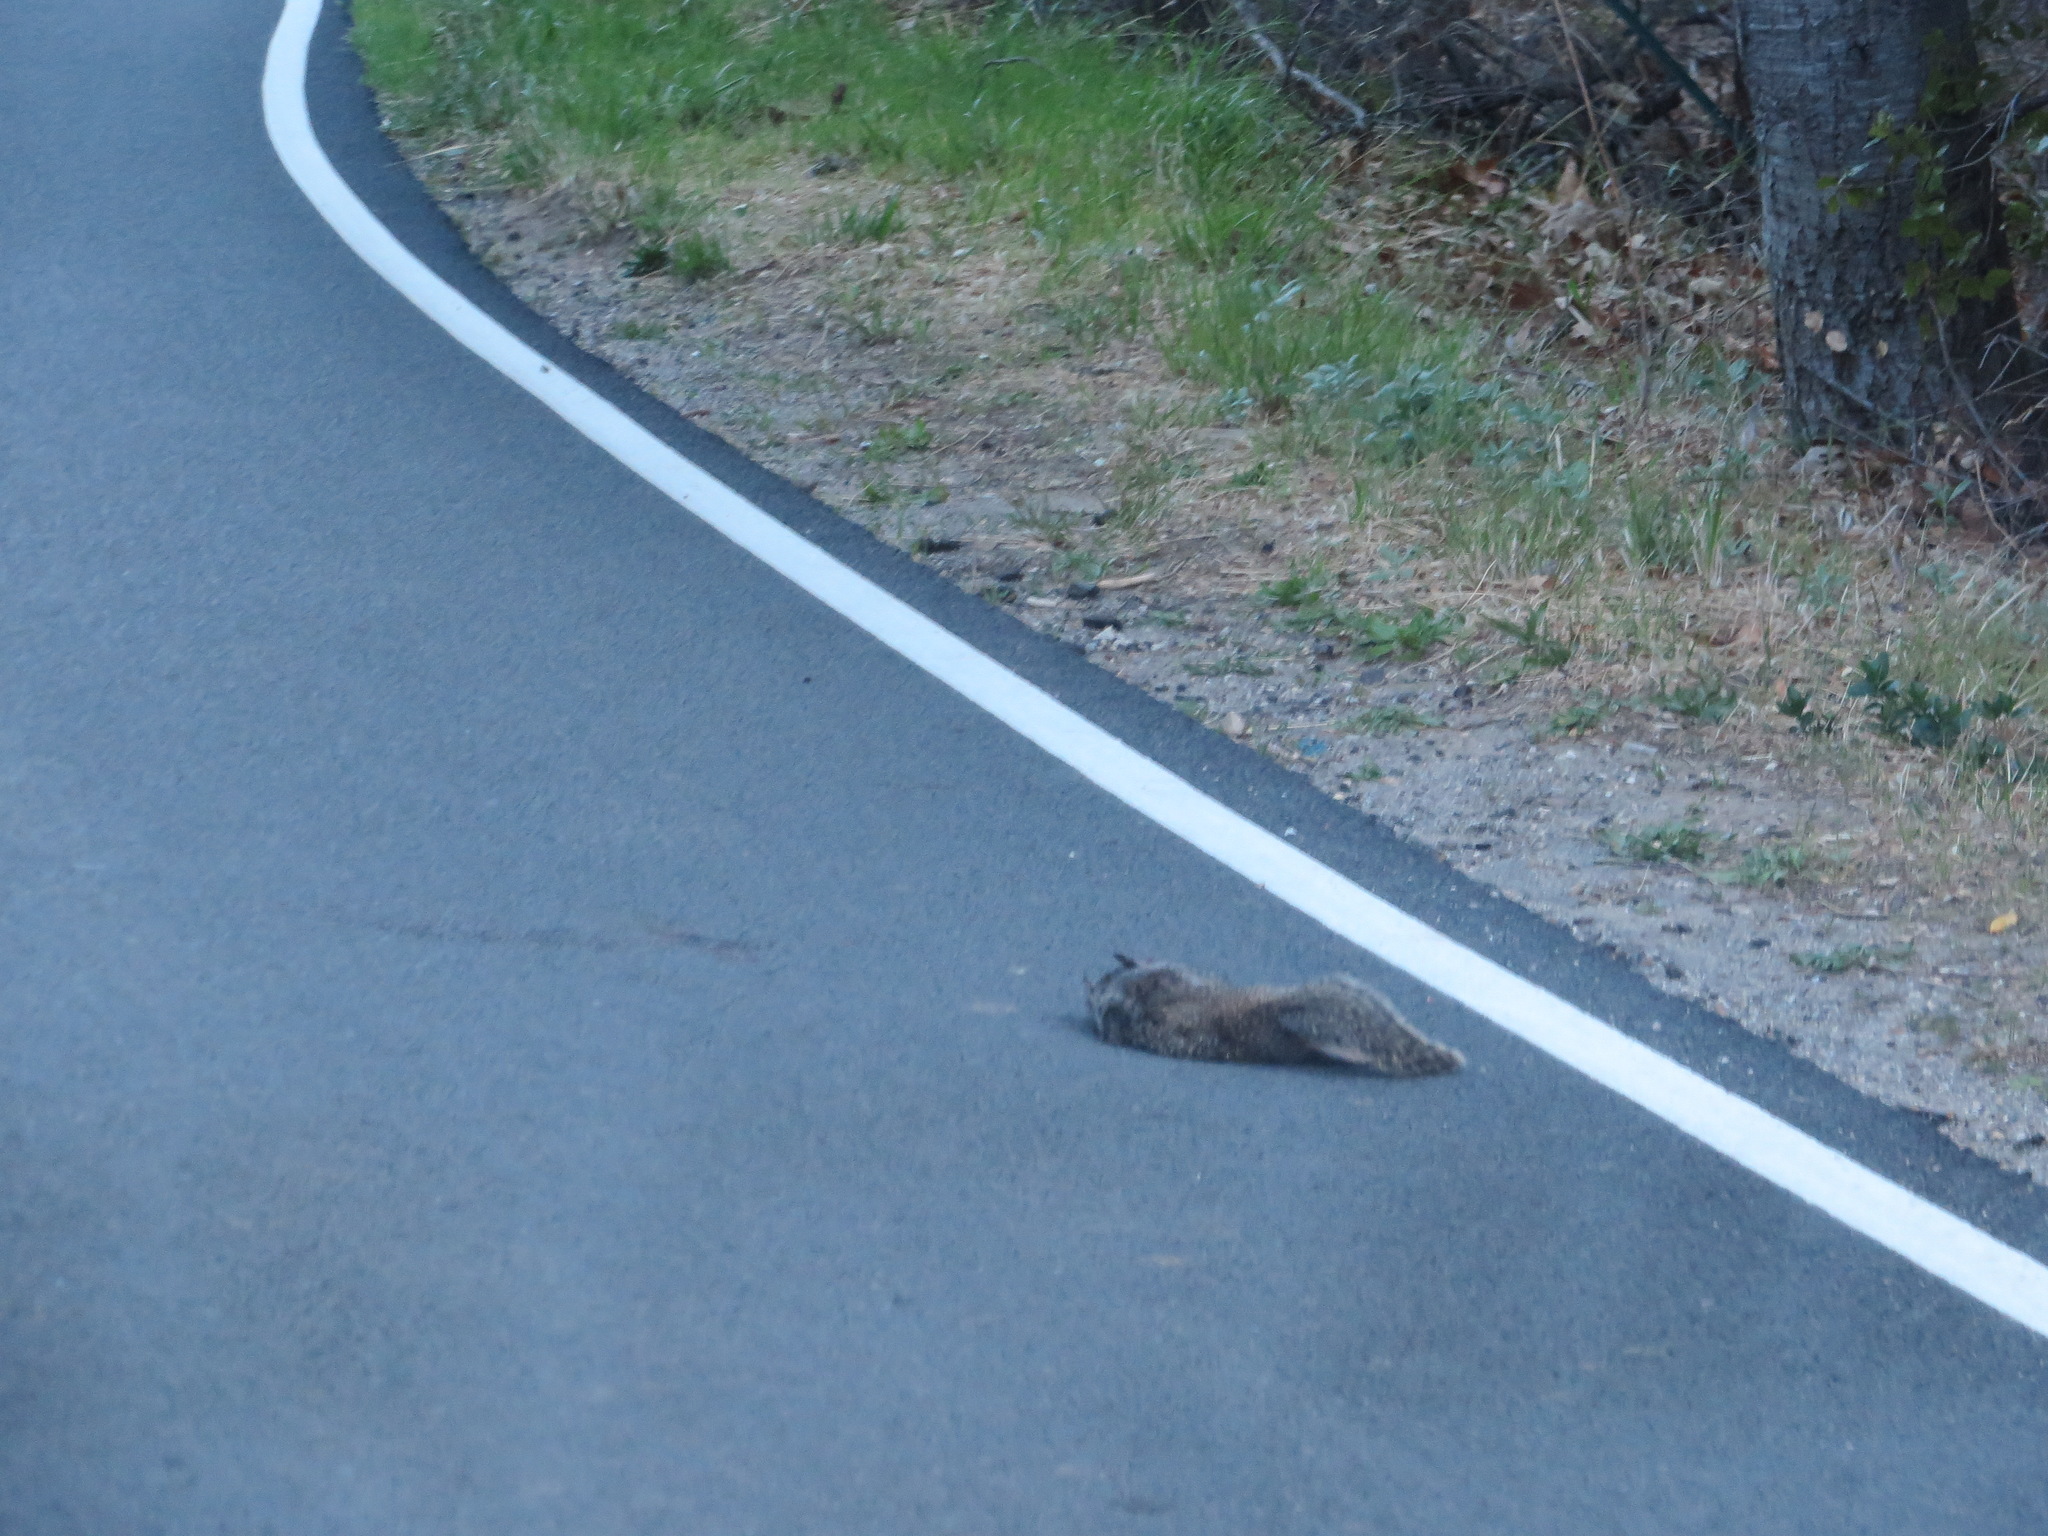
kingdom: Animalia
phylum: Chordata
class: Mammalia
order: Rodentia
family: Sciuridae
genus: Otospermophilus
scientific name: Otospermophilus beecheyi
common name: California ground squirrel
